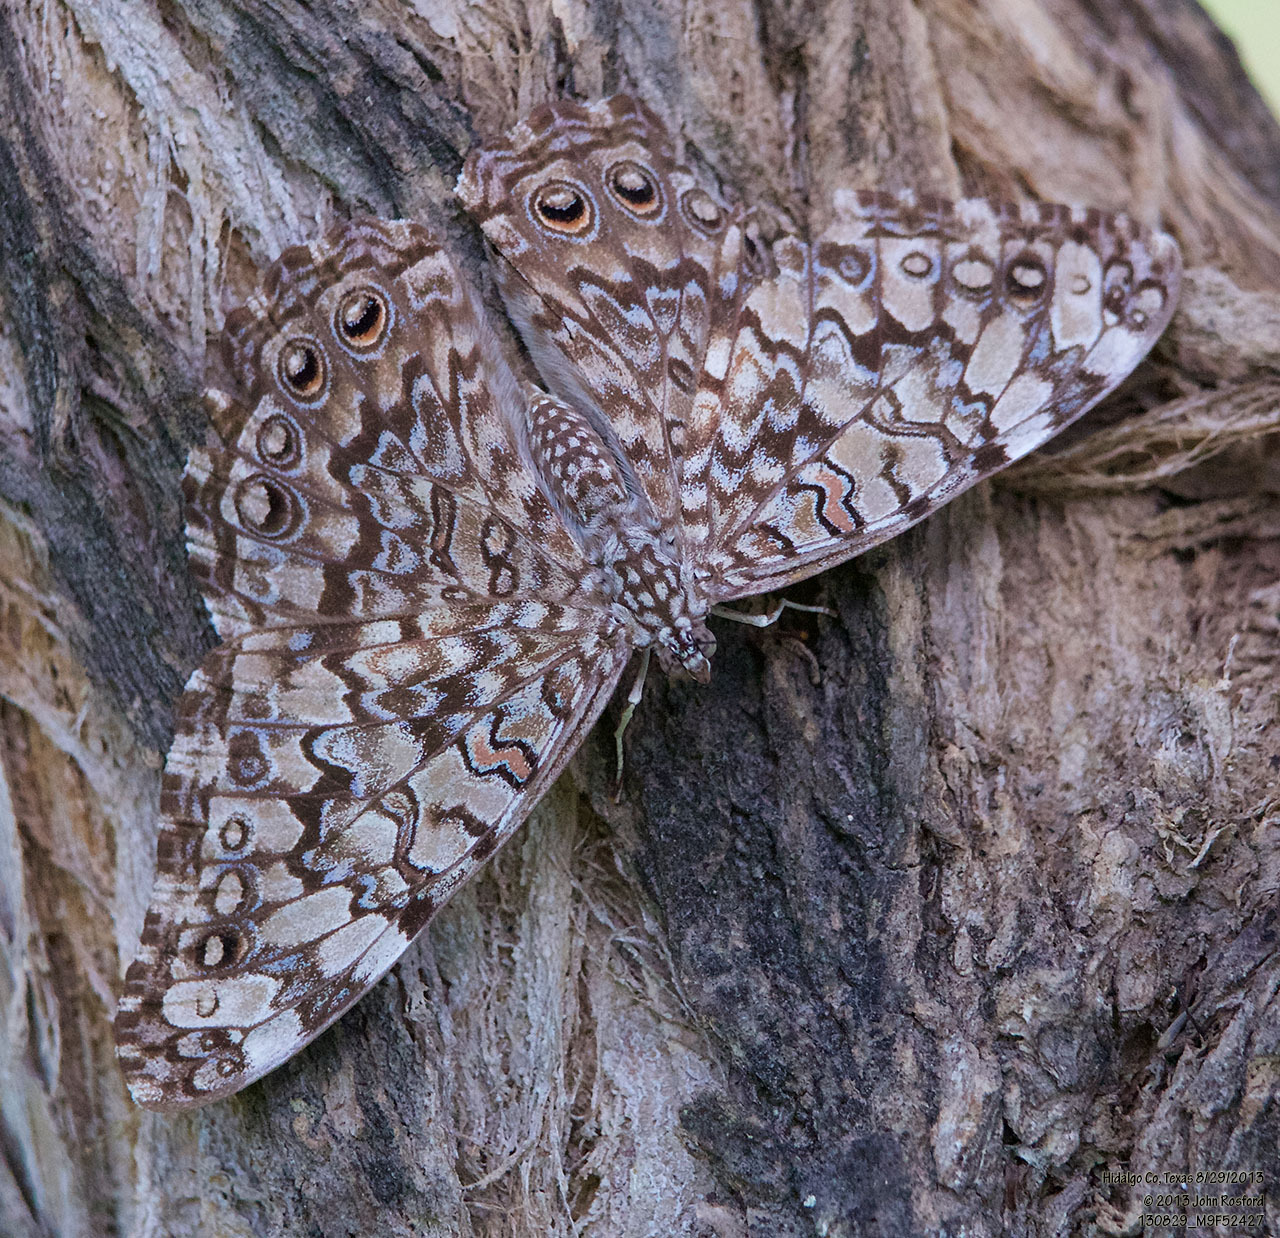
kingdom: Animalia
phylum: Arthropoda
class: Insecta
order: Lepidoptera
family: Nymphalidae
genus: Hamadryas
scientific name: Hamadryas februa
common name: Gray cracker
